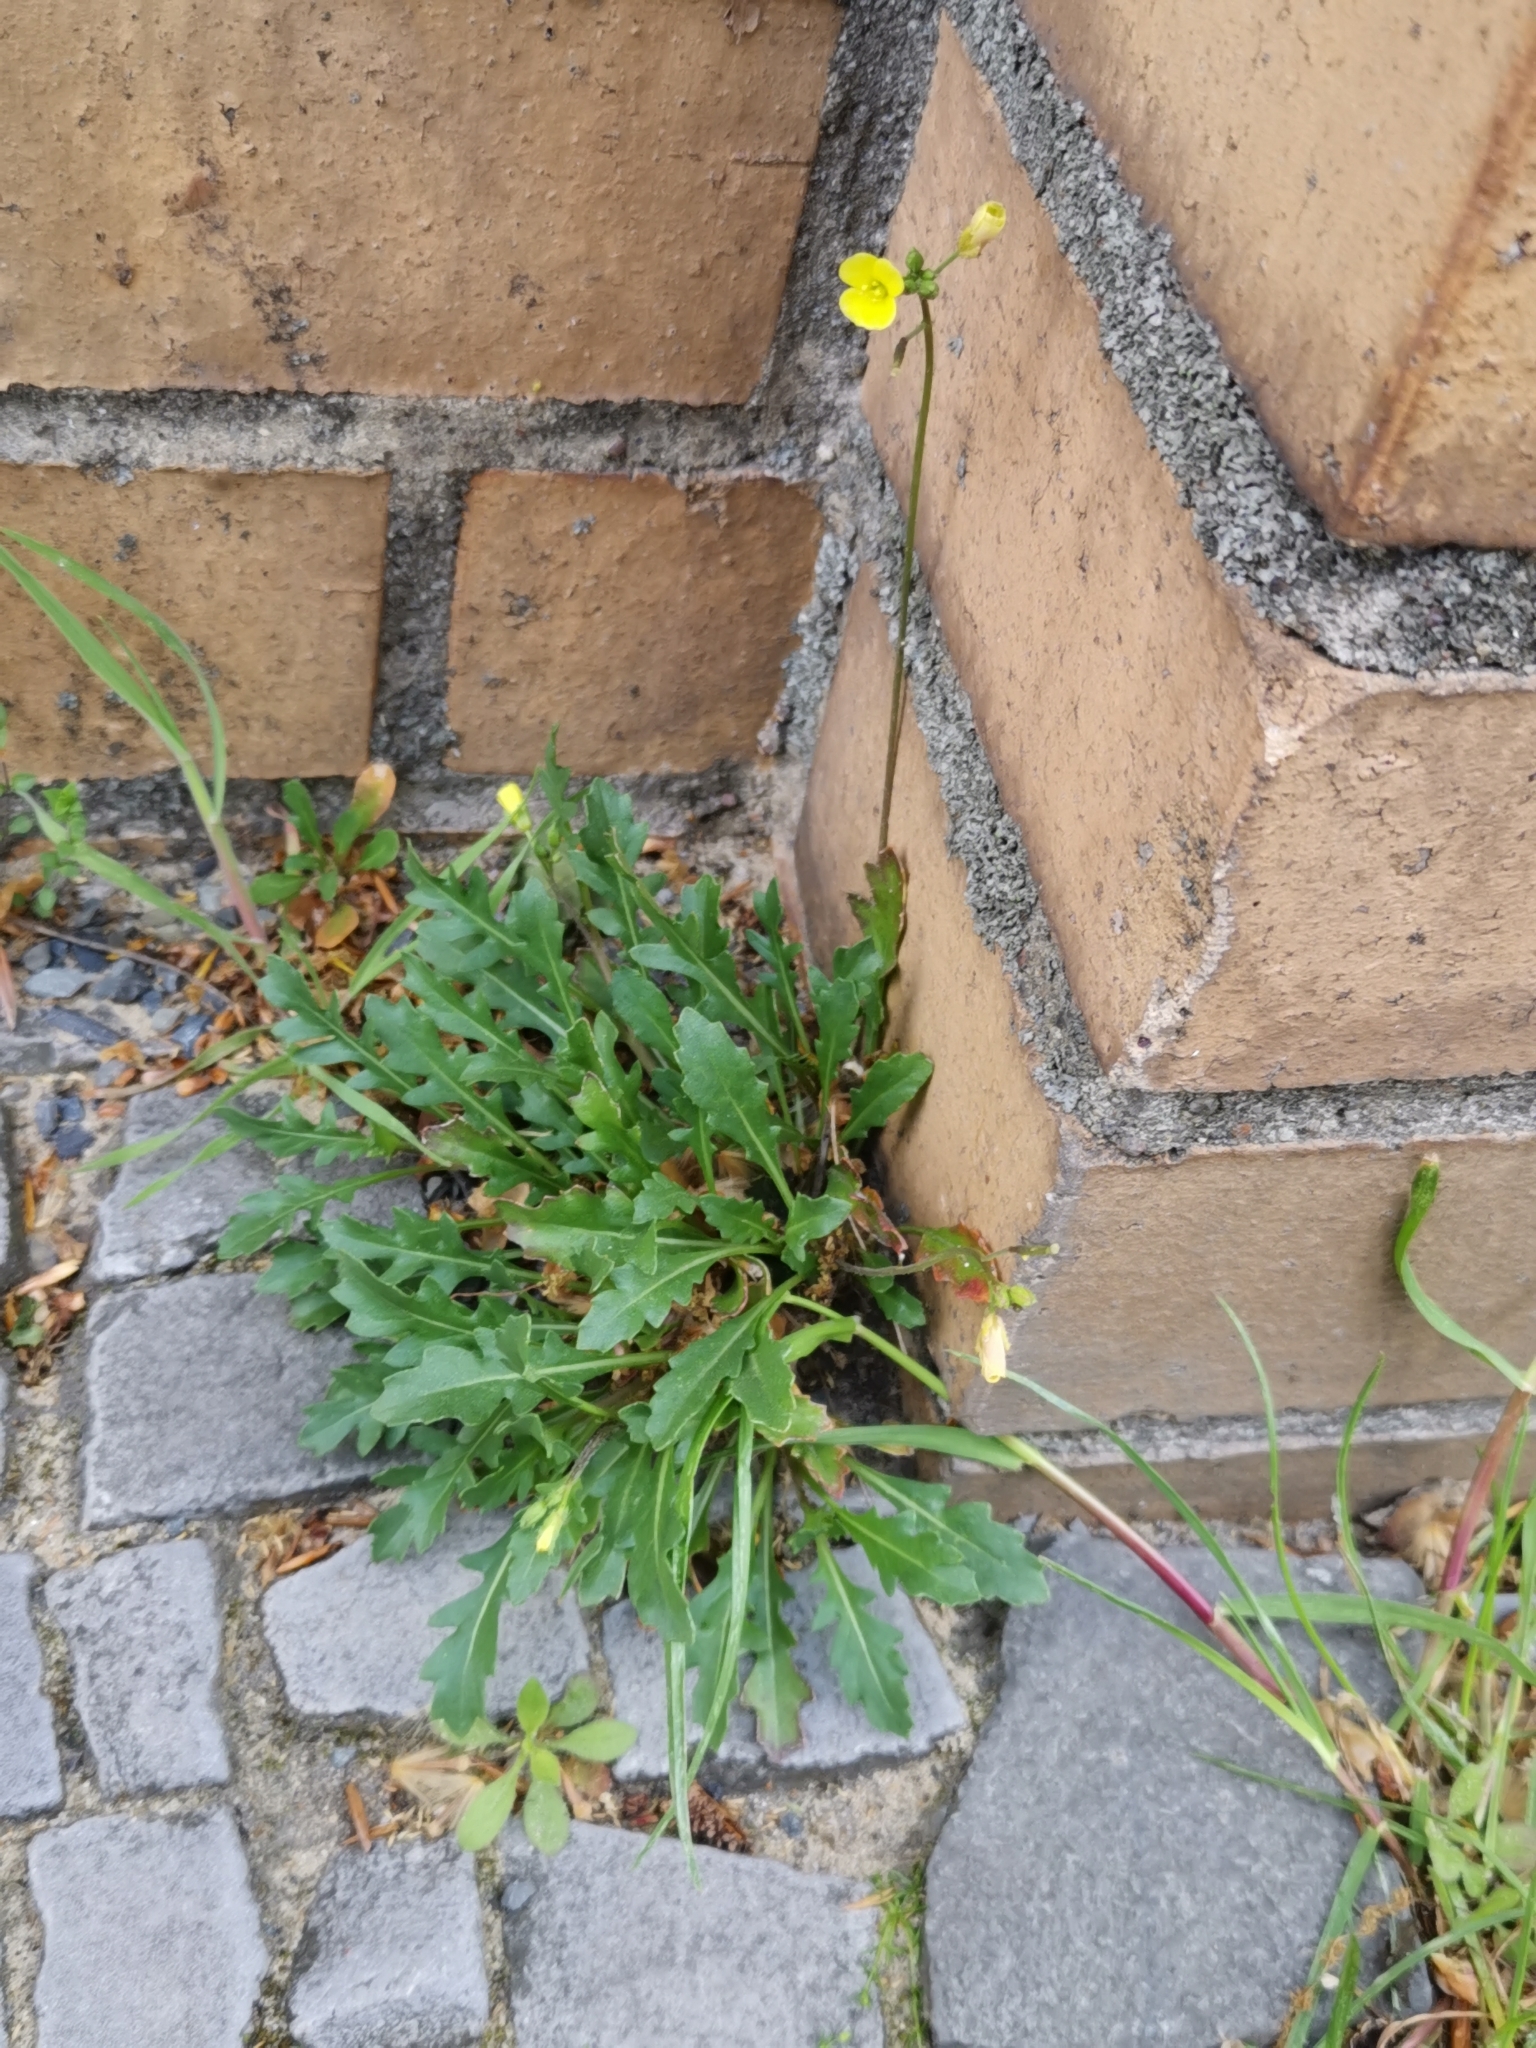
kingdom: Plantae
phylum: Tracheophyta
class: Magnoliopsida
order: Brassicales
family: Brassicaceae
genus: Diplotaxis
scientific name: Diplotaxis muralis
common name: Annual wall-rocket
